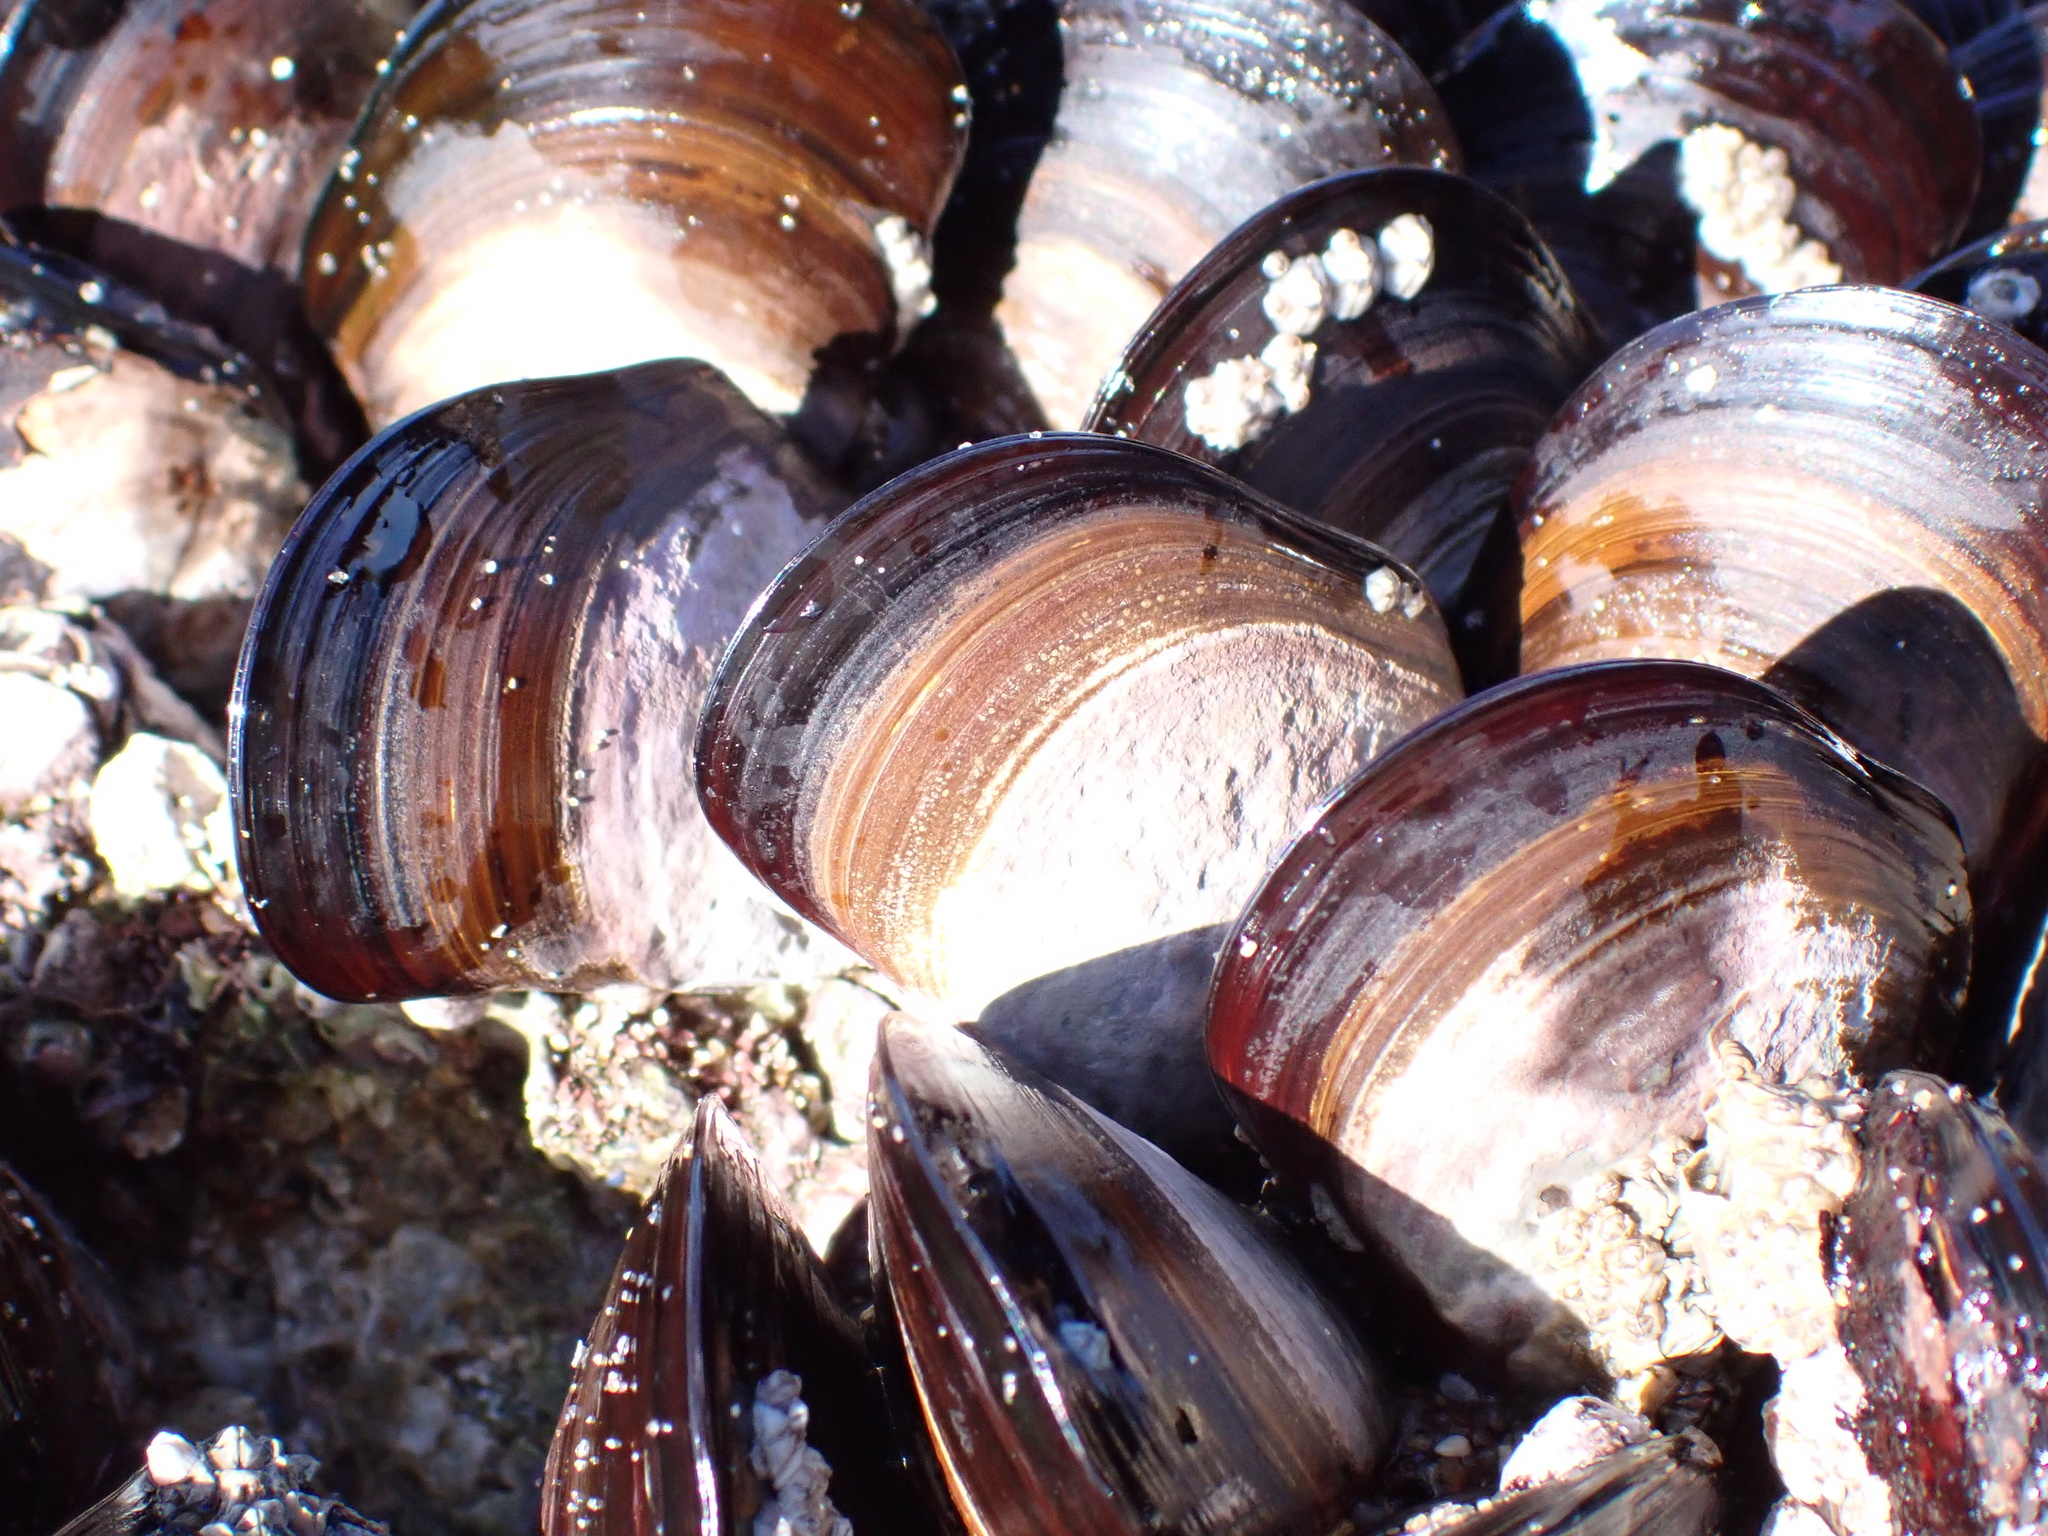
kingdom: Animalia
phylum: Mollusca
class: Bivalvia
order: Mytilida
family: Mytilidae
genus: Perna
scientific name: Perna perna
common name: Mexilhao mussel
